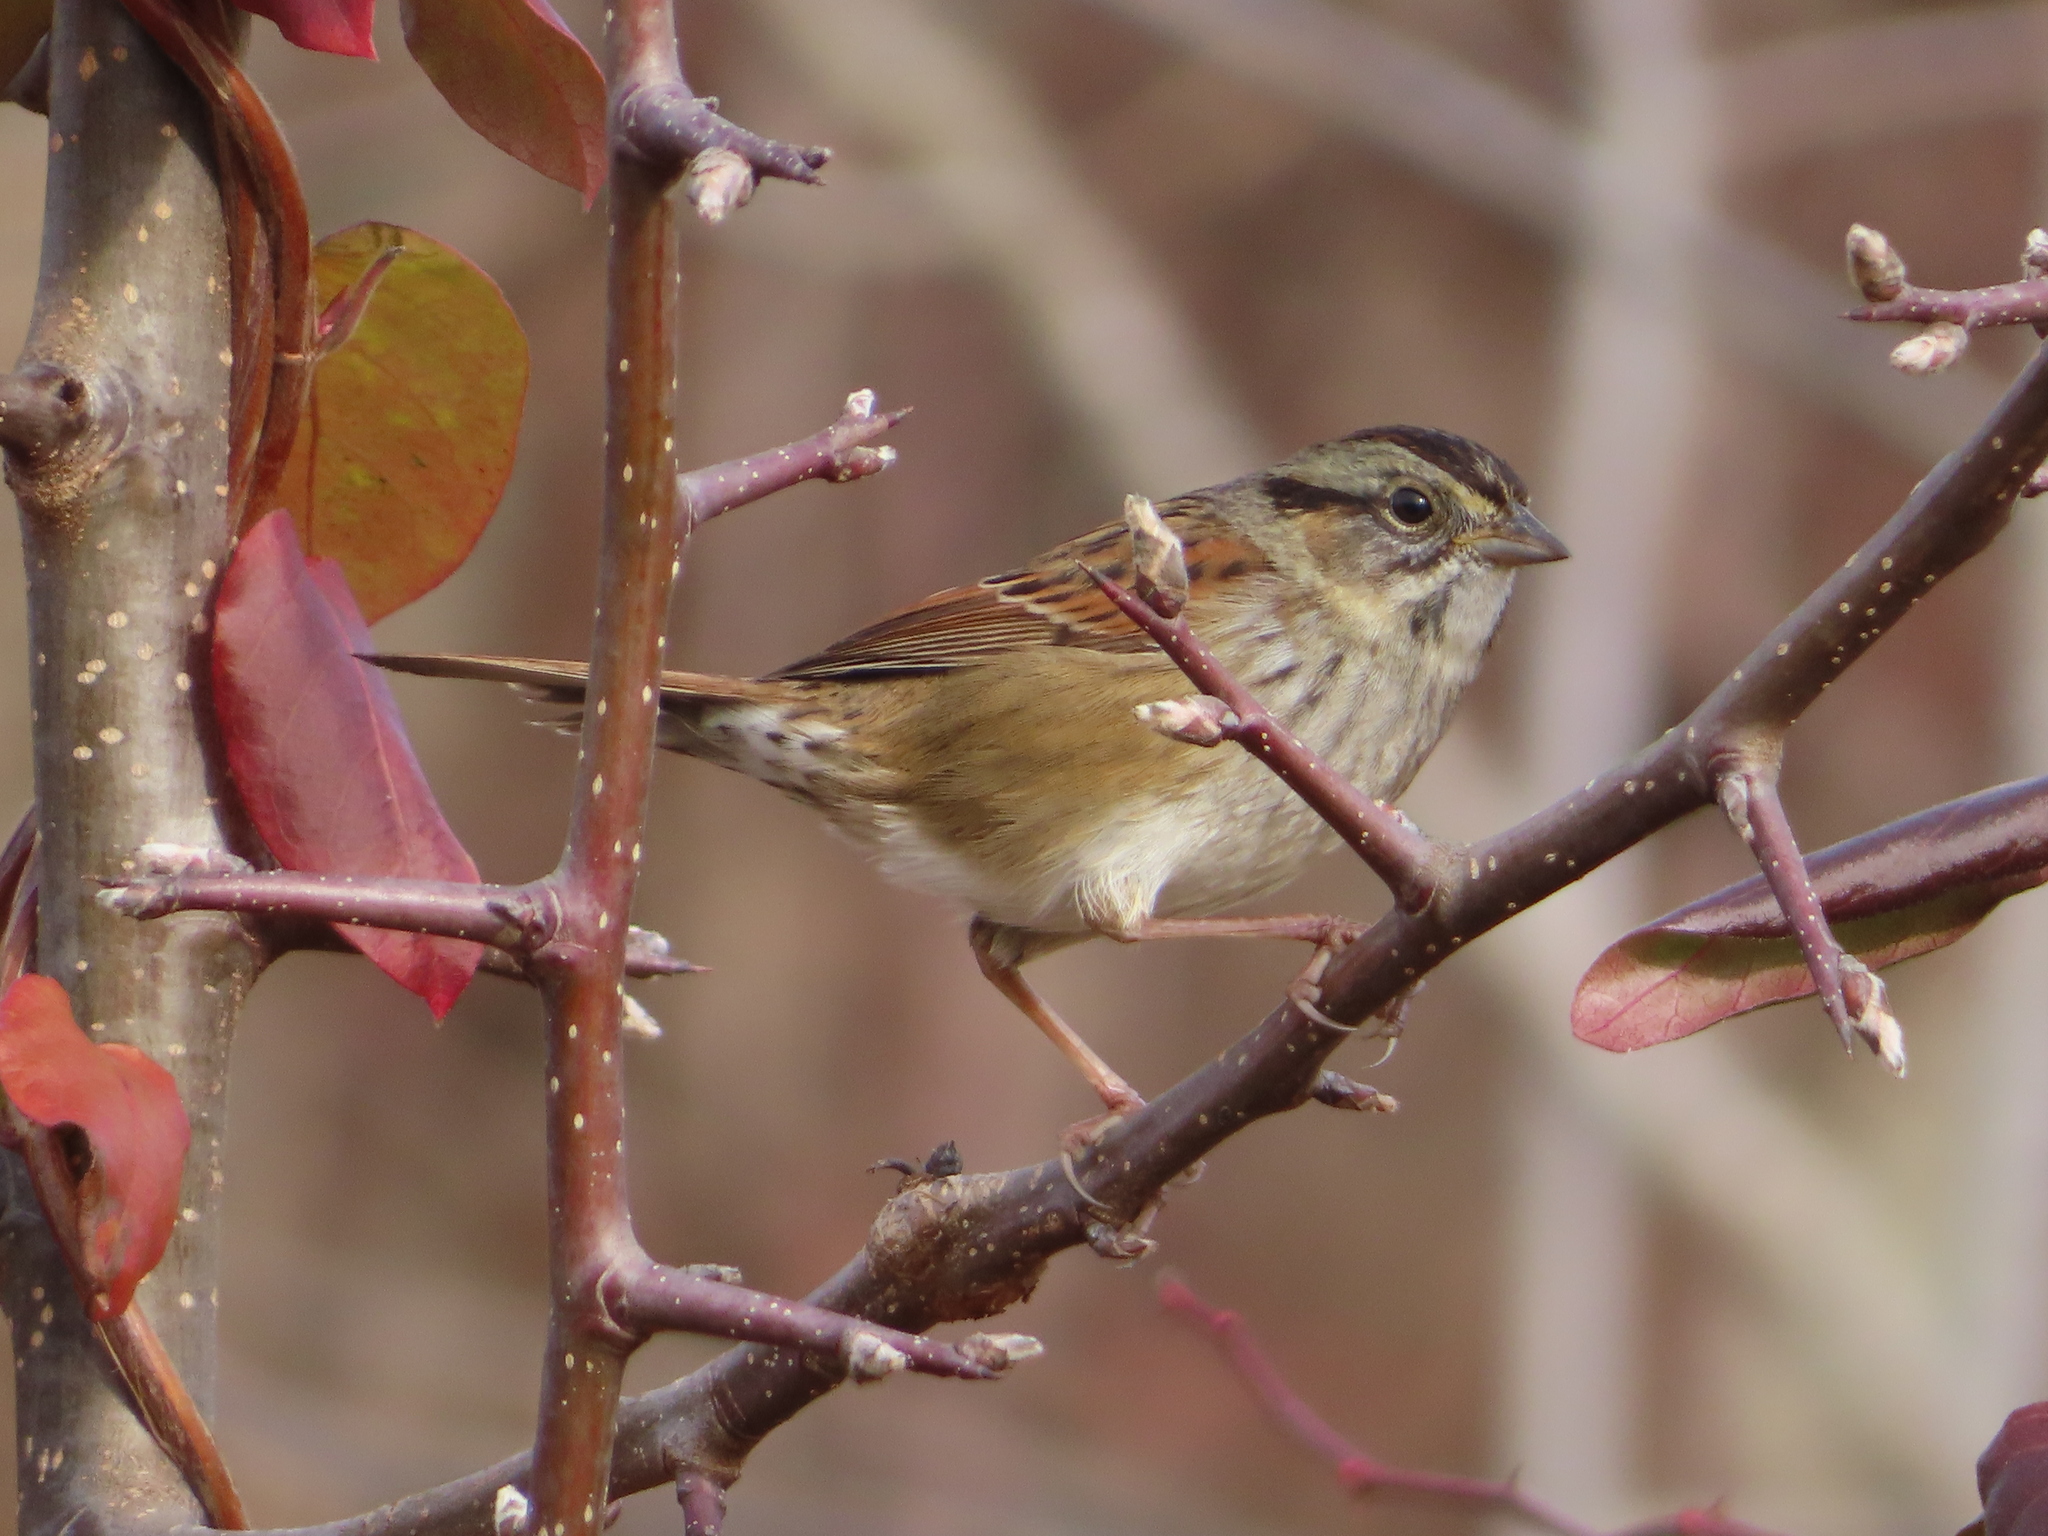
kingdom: Animalia
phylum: Chordata
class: Aves
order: Passeriformes
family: Passerellidae
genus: Melospiza
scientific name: Melospiza georgiana
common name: Swamp sparrow
